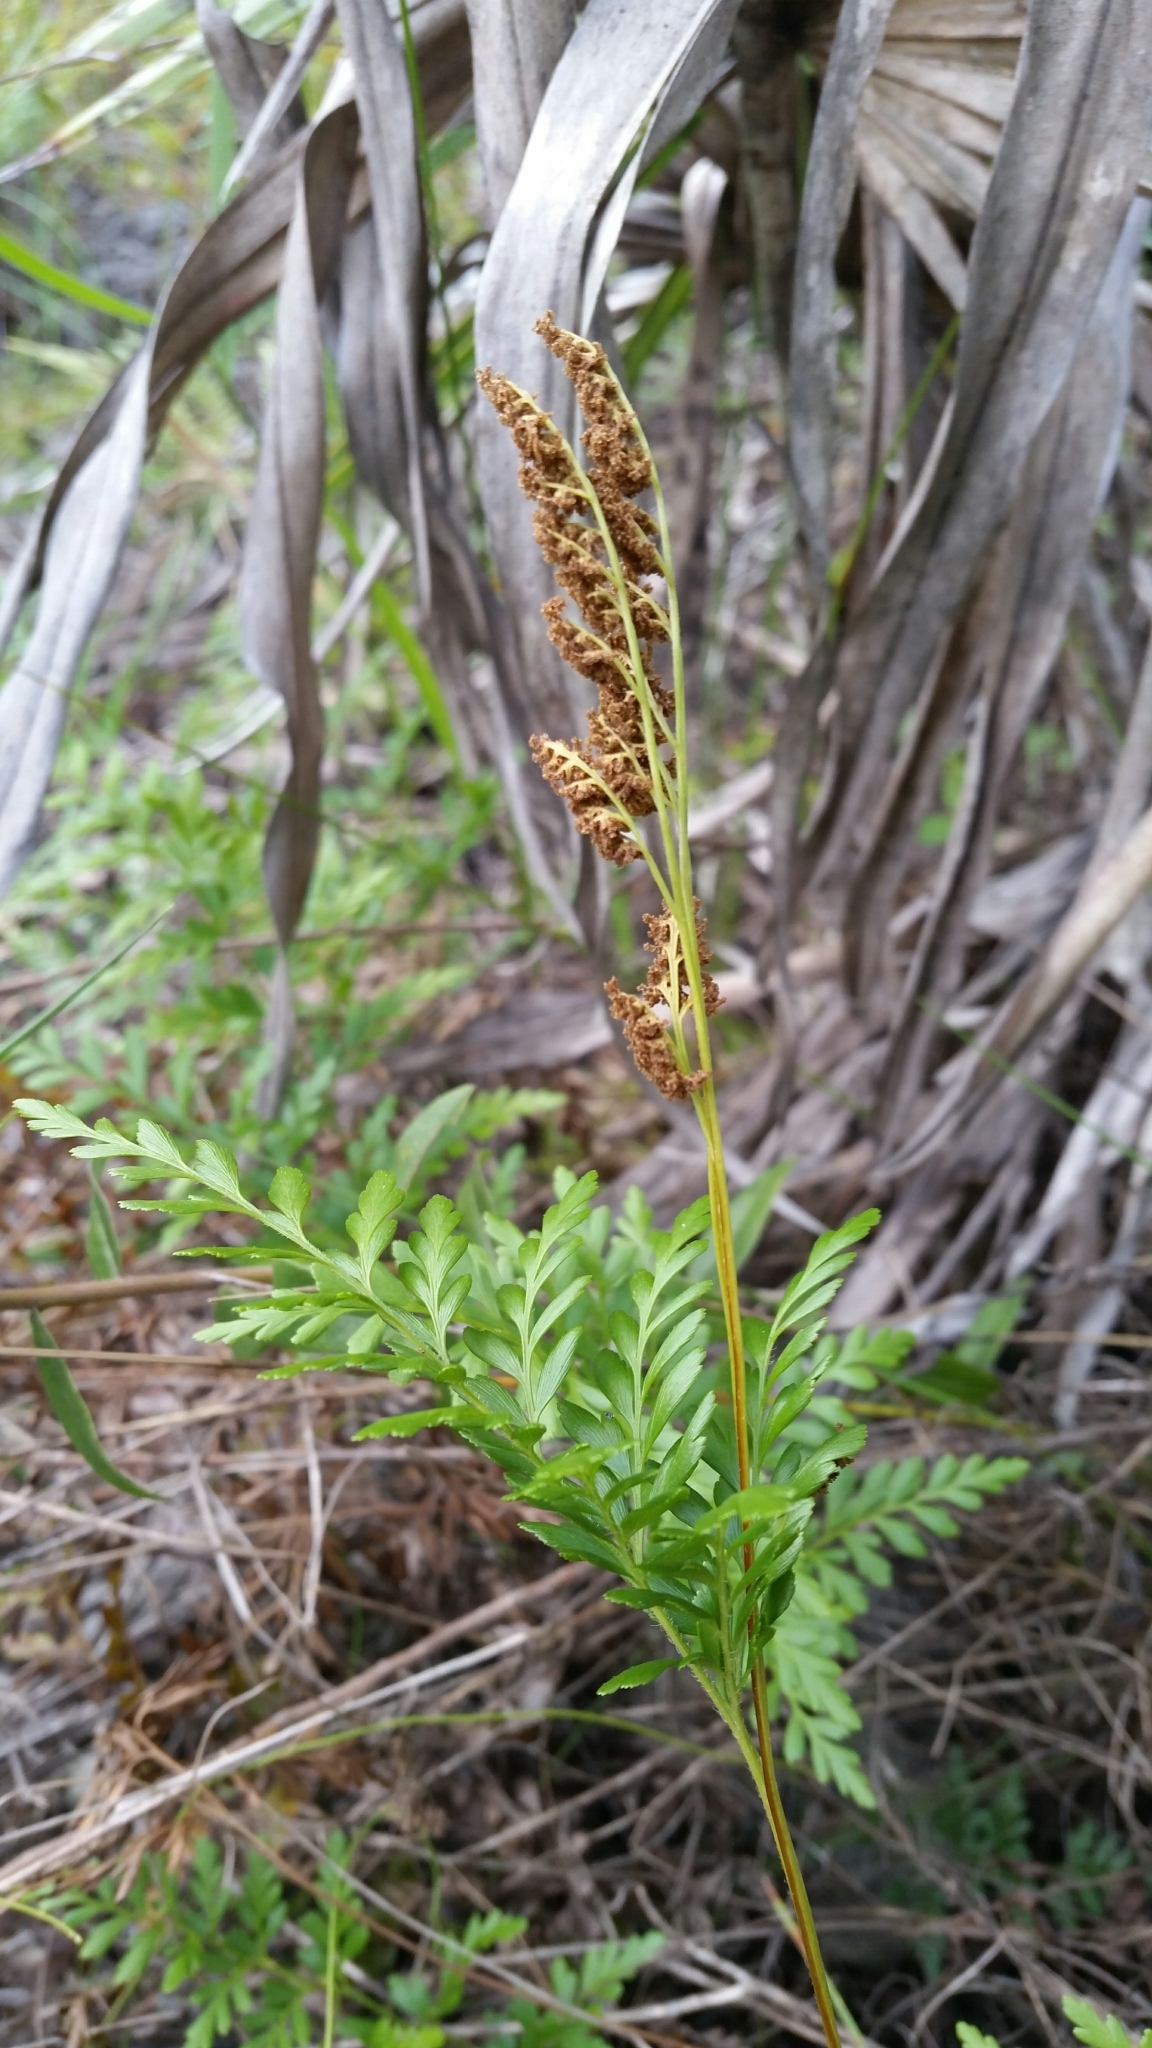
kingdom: Plantae
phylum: Tracheophyta
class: Polypodiopsida
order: Schizaeales
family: Anemiaceae
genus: Anemia
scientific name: Anemia adiantifolia
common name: Pine fern
